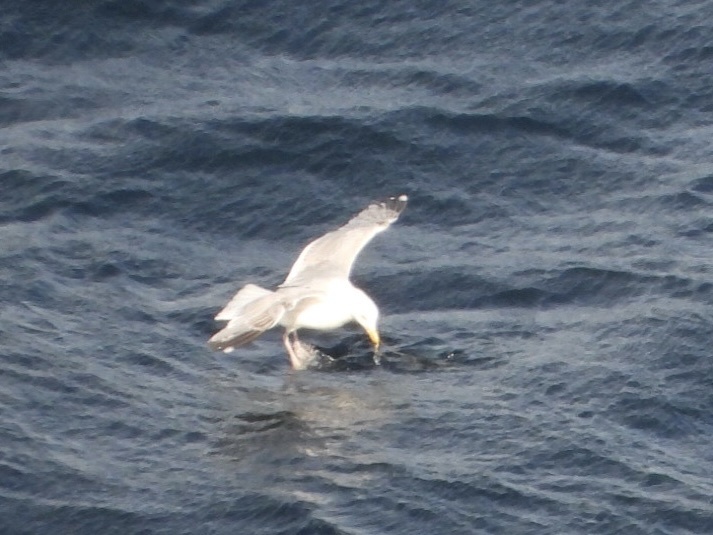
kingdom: Animalia
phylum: Chordata
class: Aves
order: Charadriiformes
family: Laridae
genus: Larus
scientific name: Larus argentatus
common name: Herring gull
